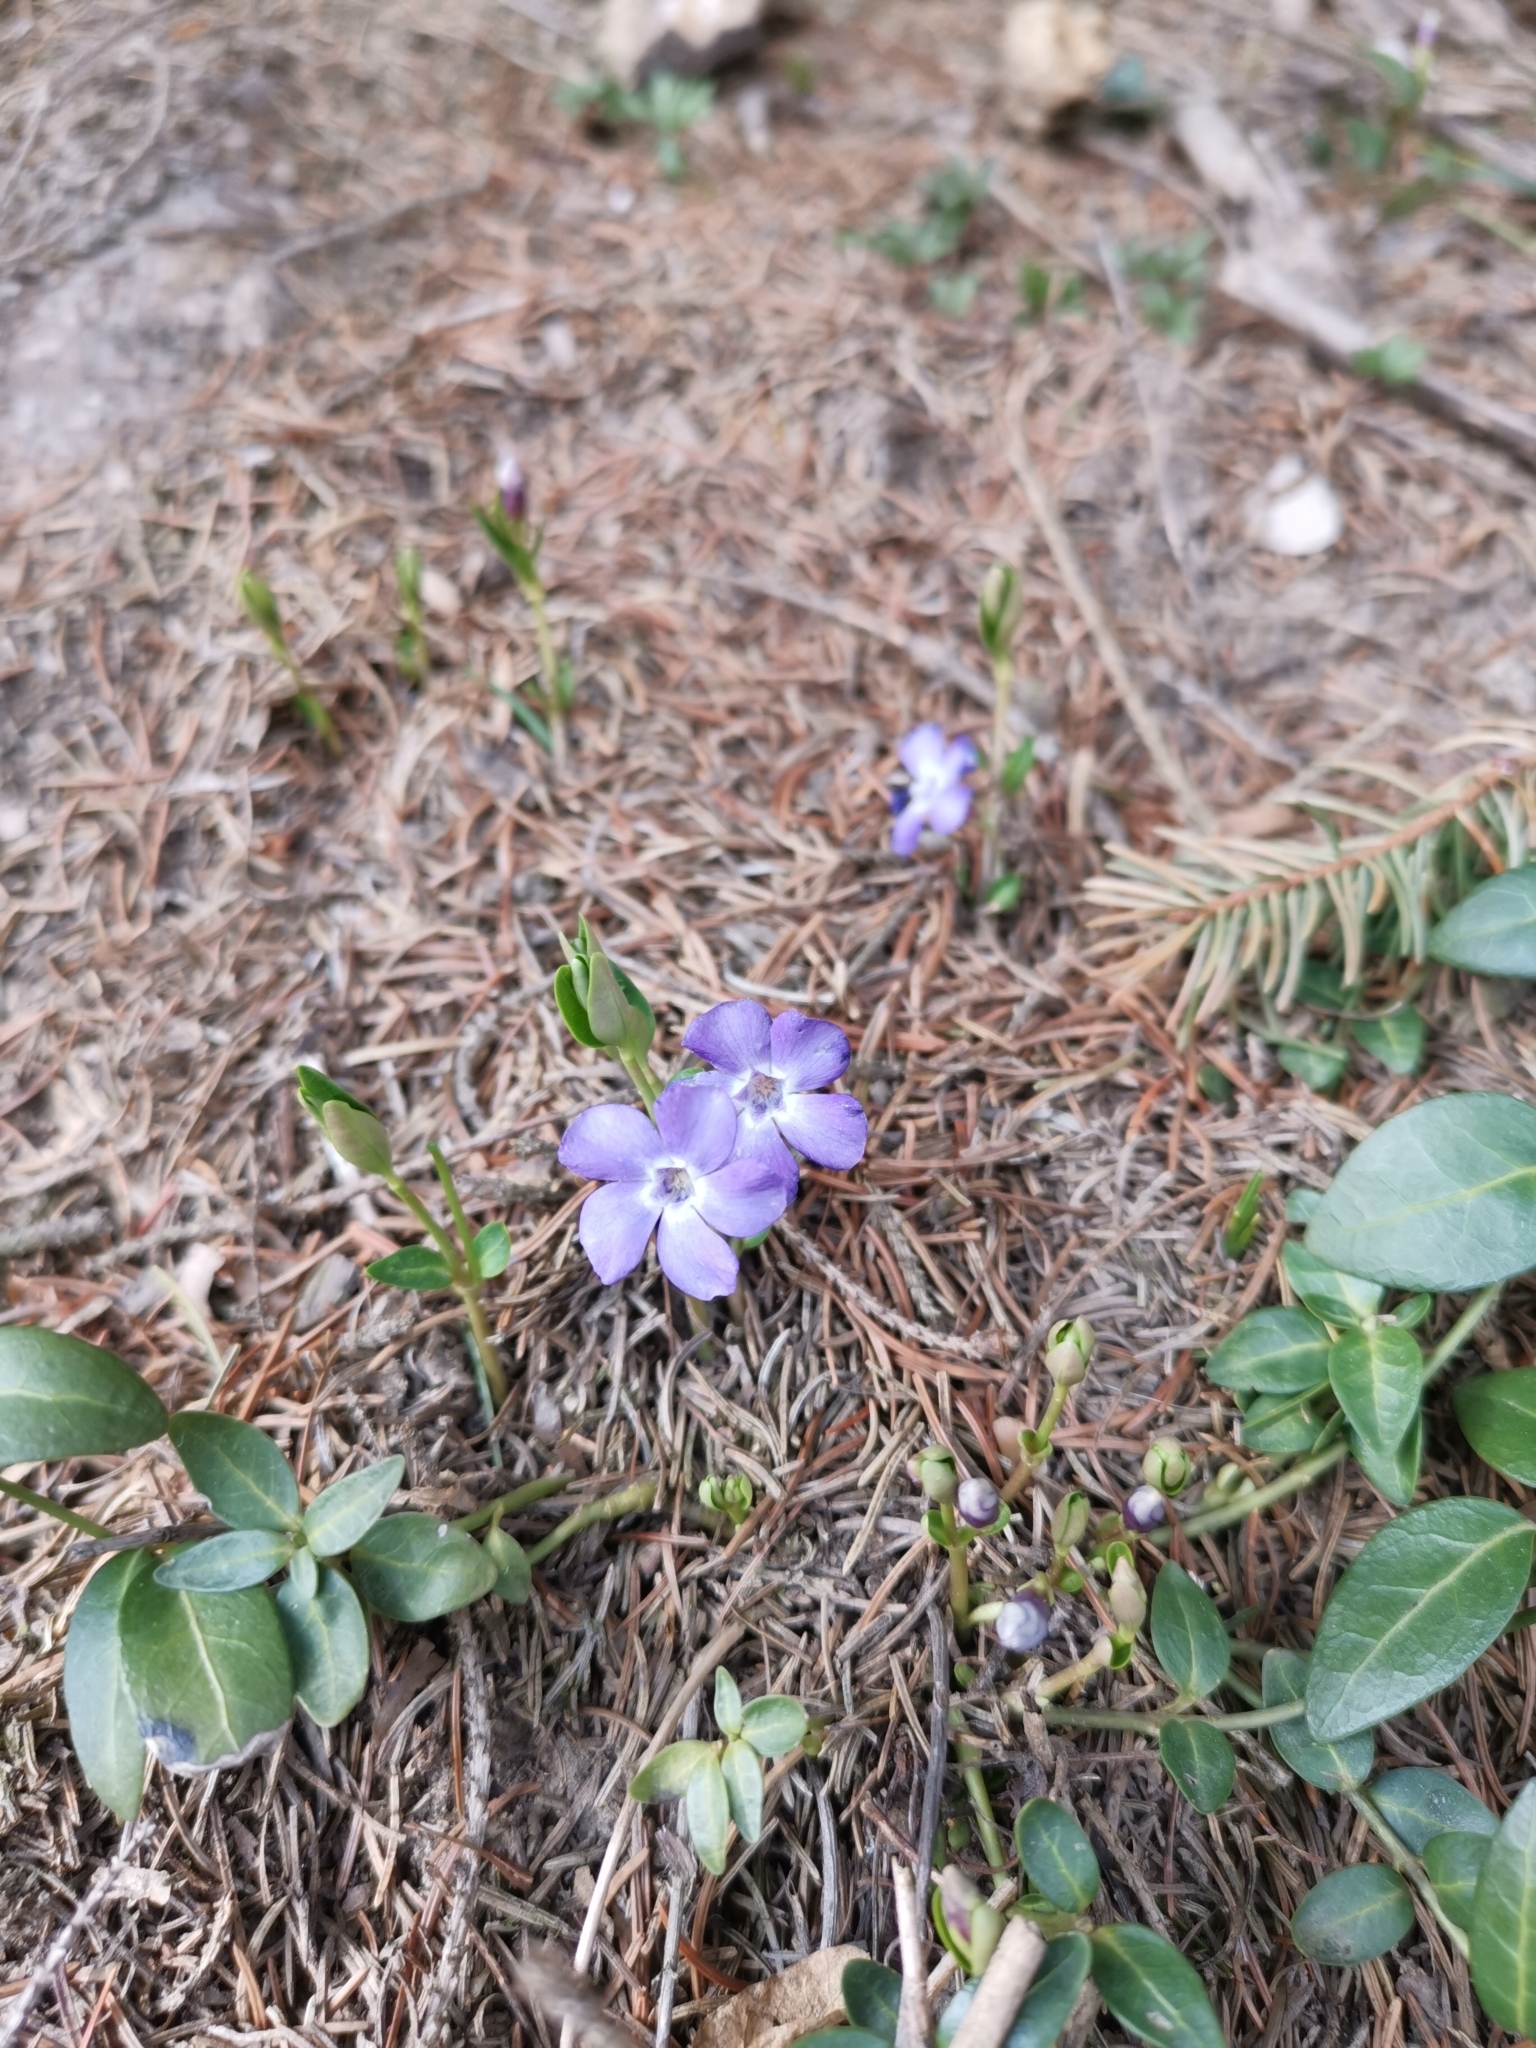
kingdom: Plantae
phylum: Tracheophyta
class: Magnoliopsida
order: Gentianales
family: Apocynaceae
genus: Vinca
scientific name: Vinca minor
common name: Lesser periwinkle
